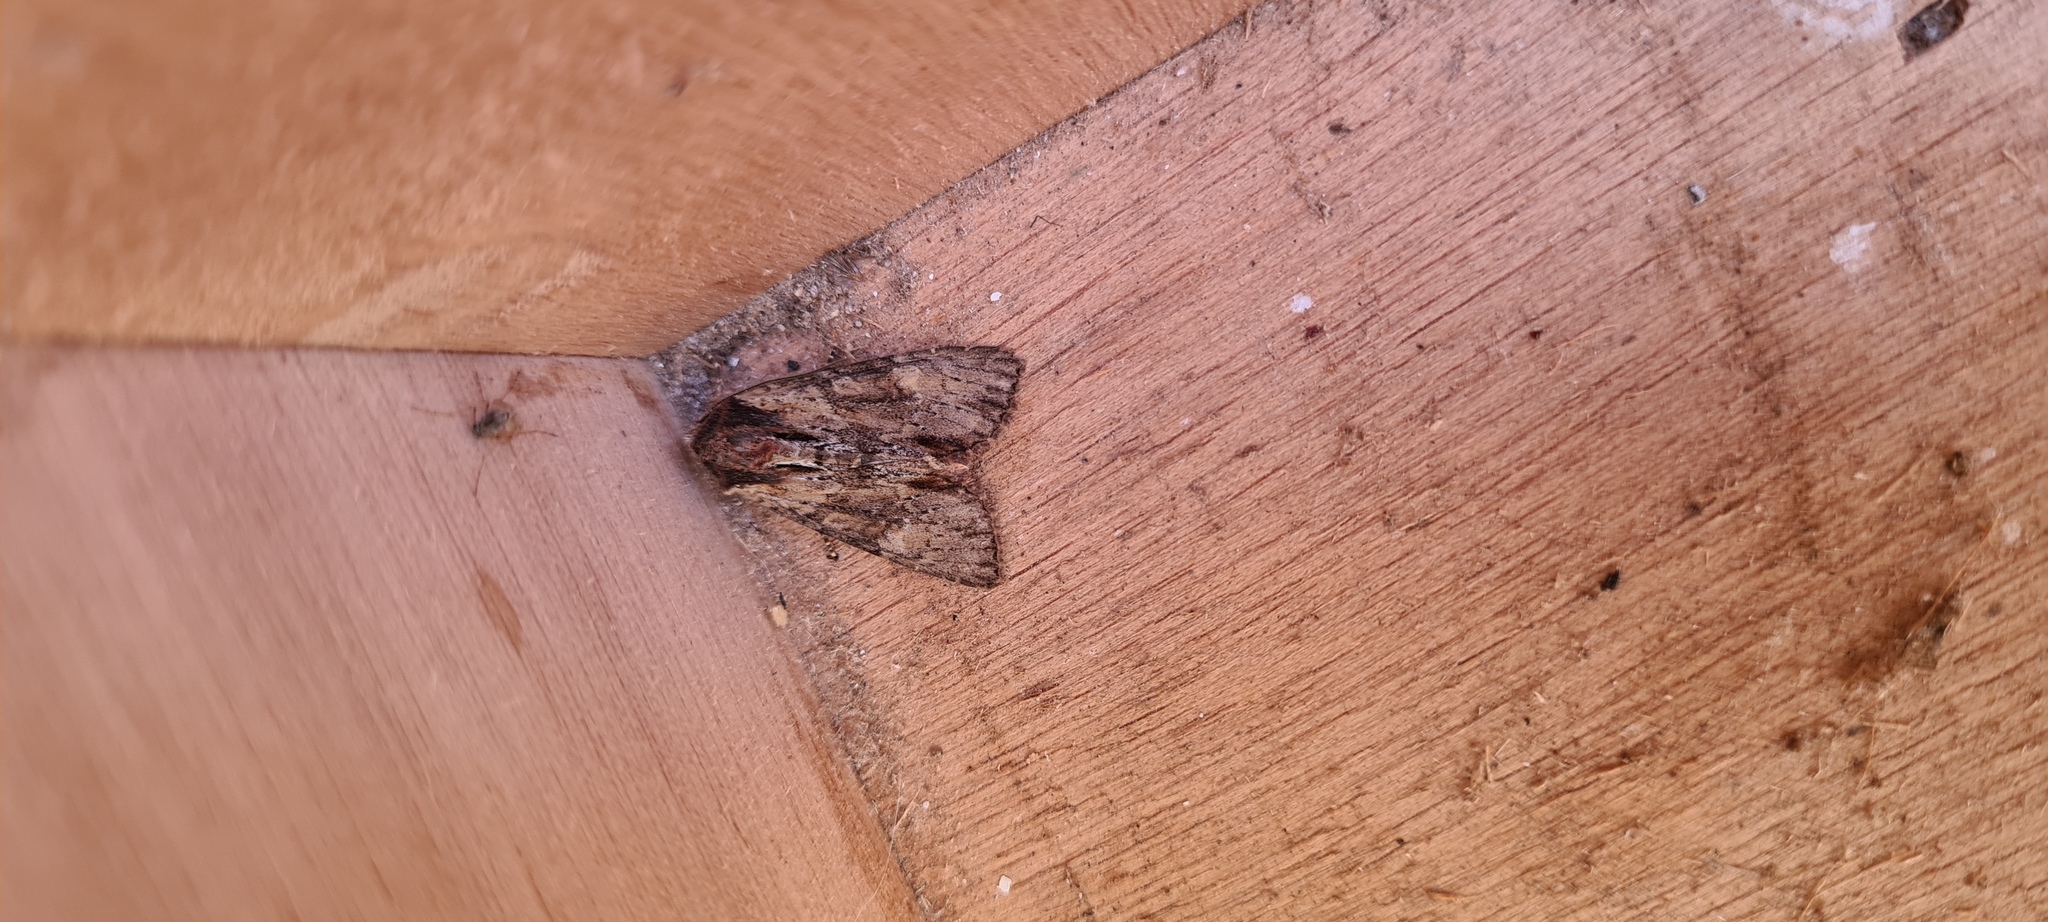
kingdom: Animalia
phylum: Arthropoda
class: Insecta
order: Lepidoptera
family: Noctuidae
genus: Apamea
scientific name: Apamea crenata
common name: Clouded-bordered brindle
